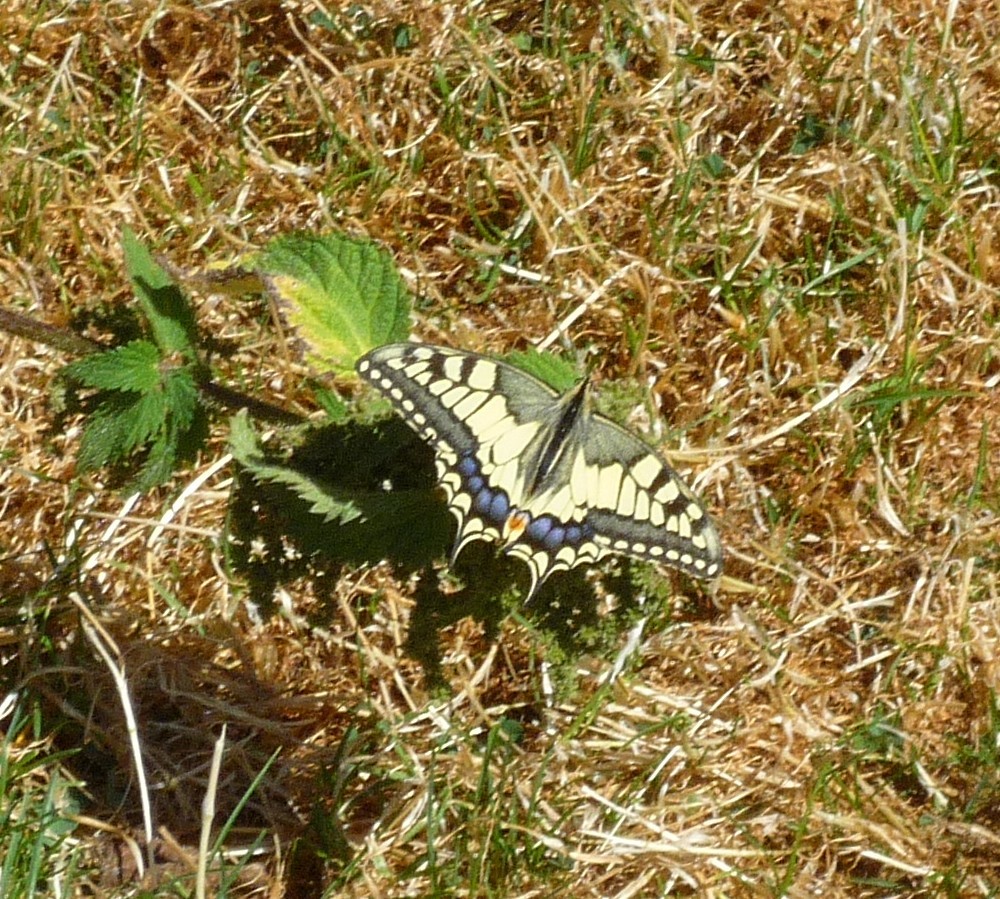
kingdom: Animalia
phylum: Arthropoda
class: Insecta
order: Lepidoptera
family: Papilionidae
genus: Papilio
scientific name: Papilio machaon
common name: Swallowtail
